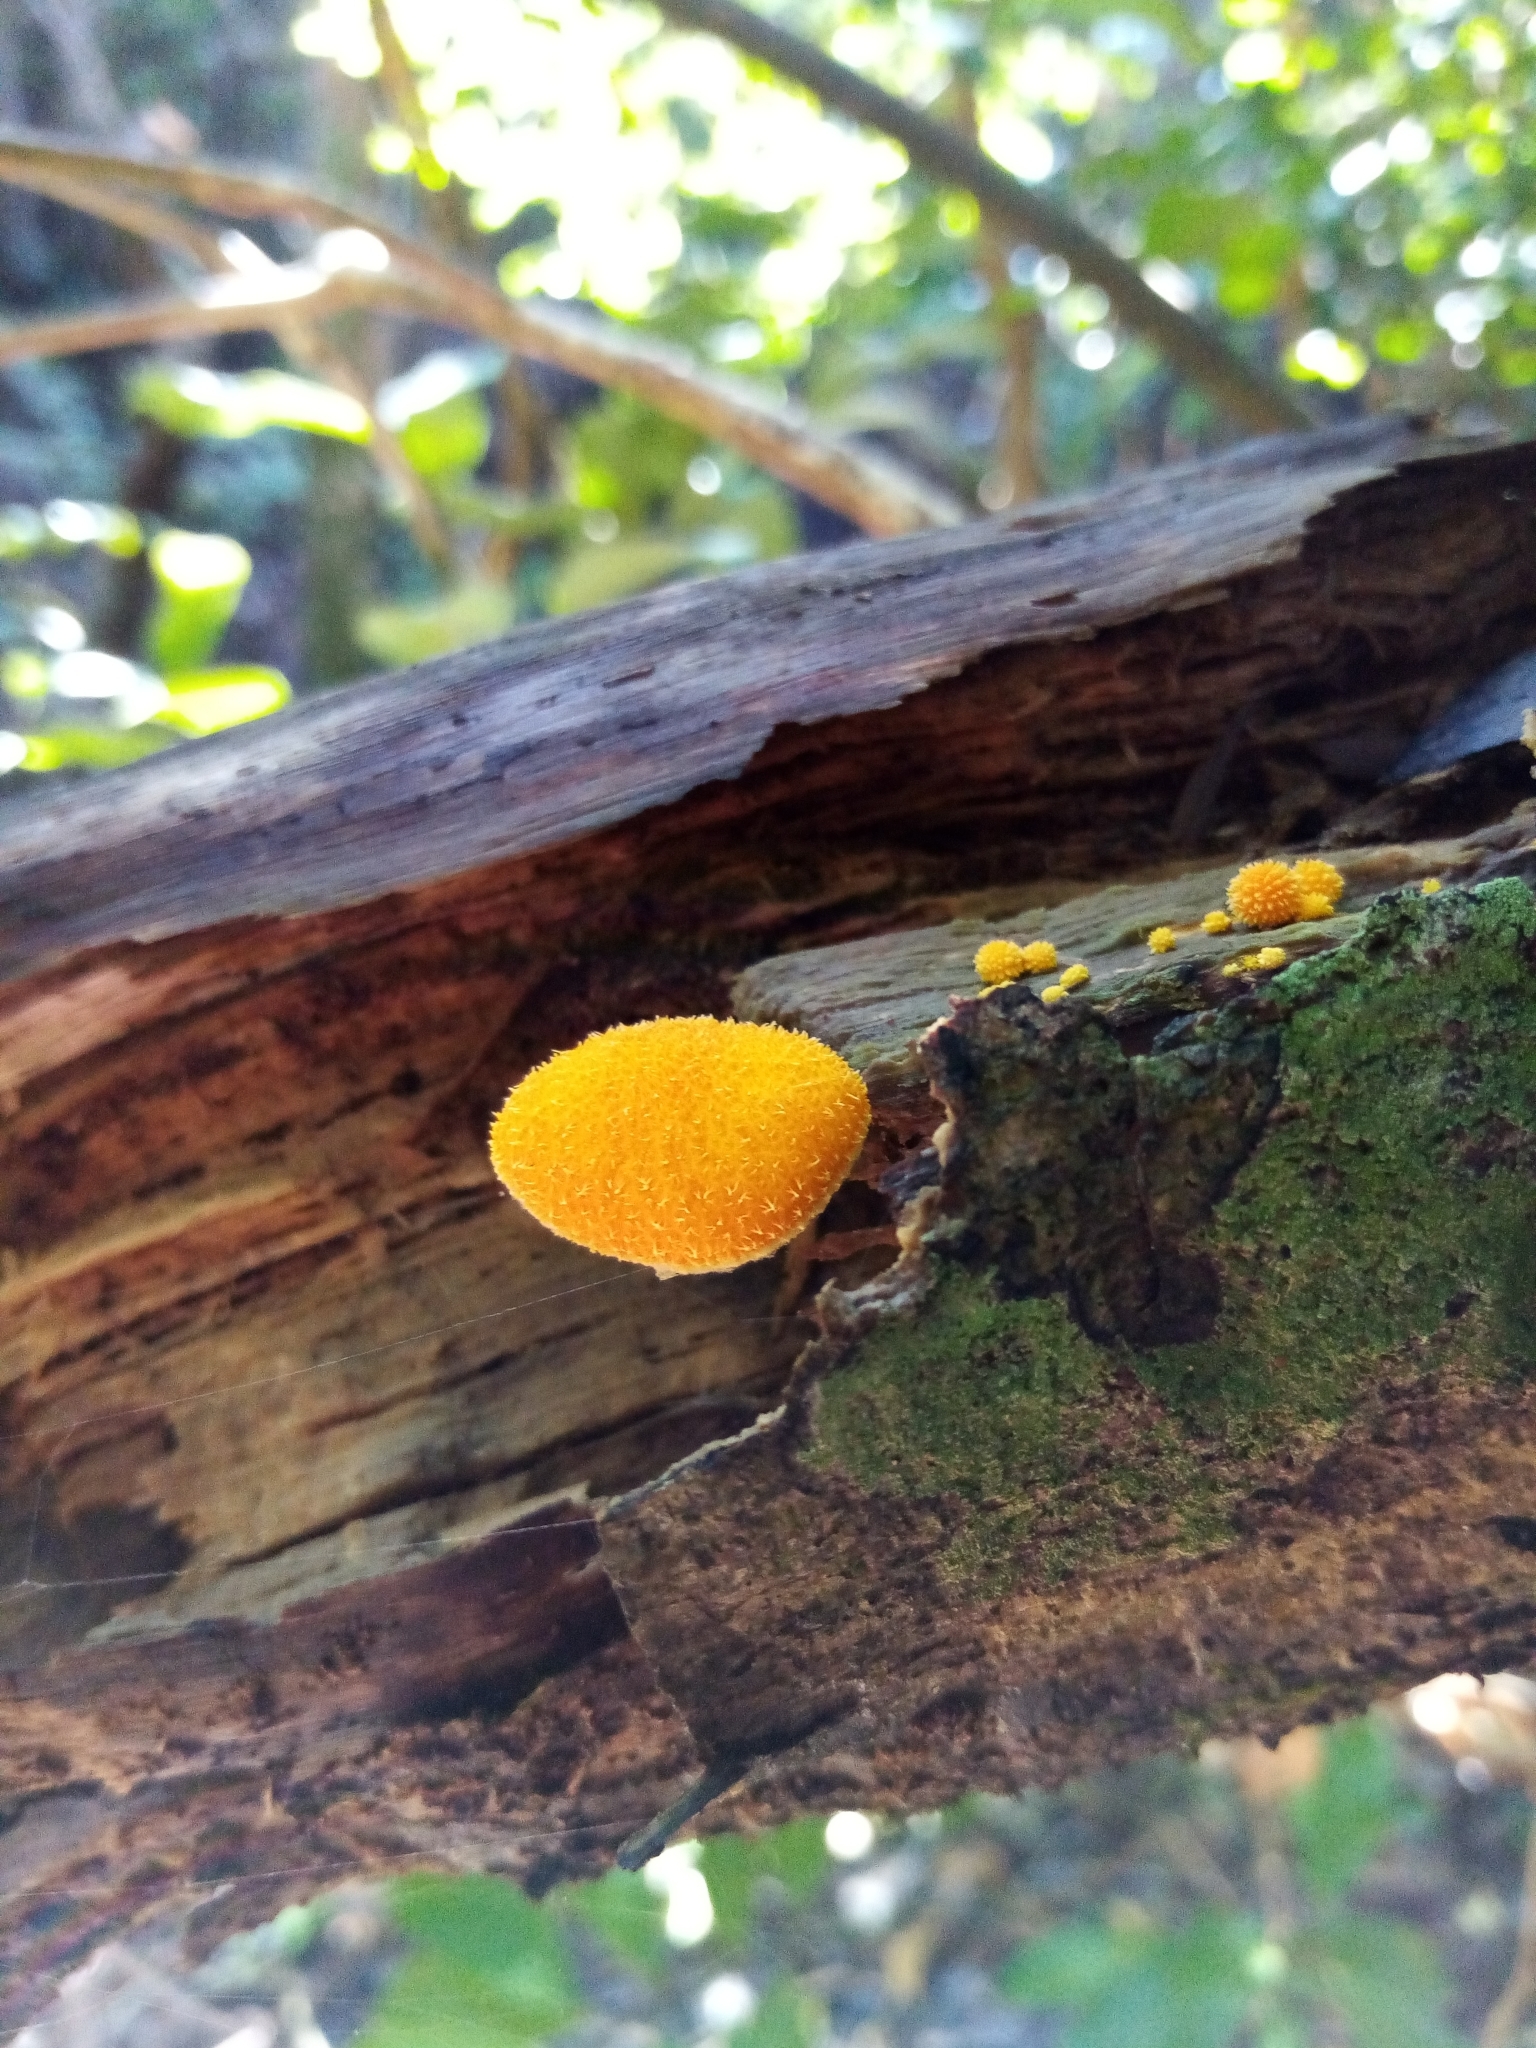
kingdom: Fungi
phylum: Basidiomycota
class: Agaricomycetes
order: Agaricales
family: Physalacriaceae
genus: Cyptotrama
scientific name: Cyptotrama asprata
